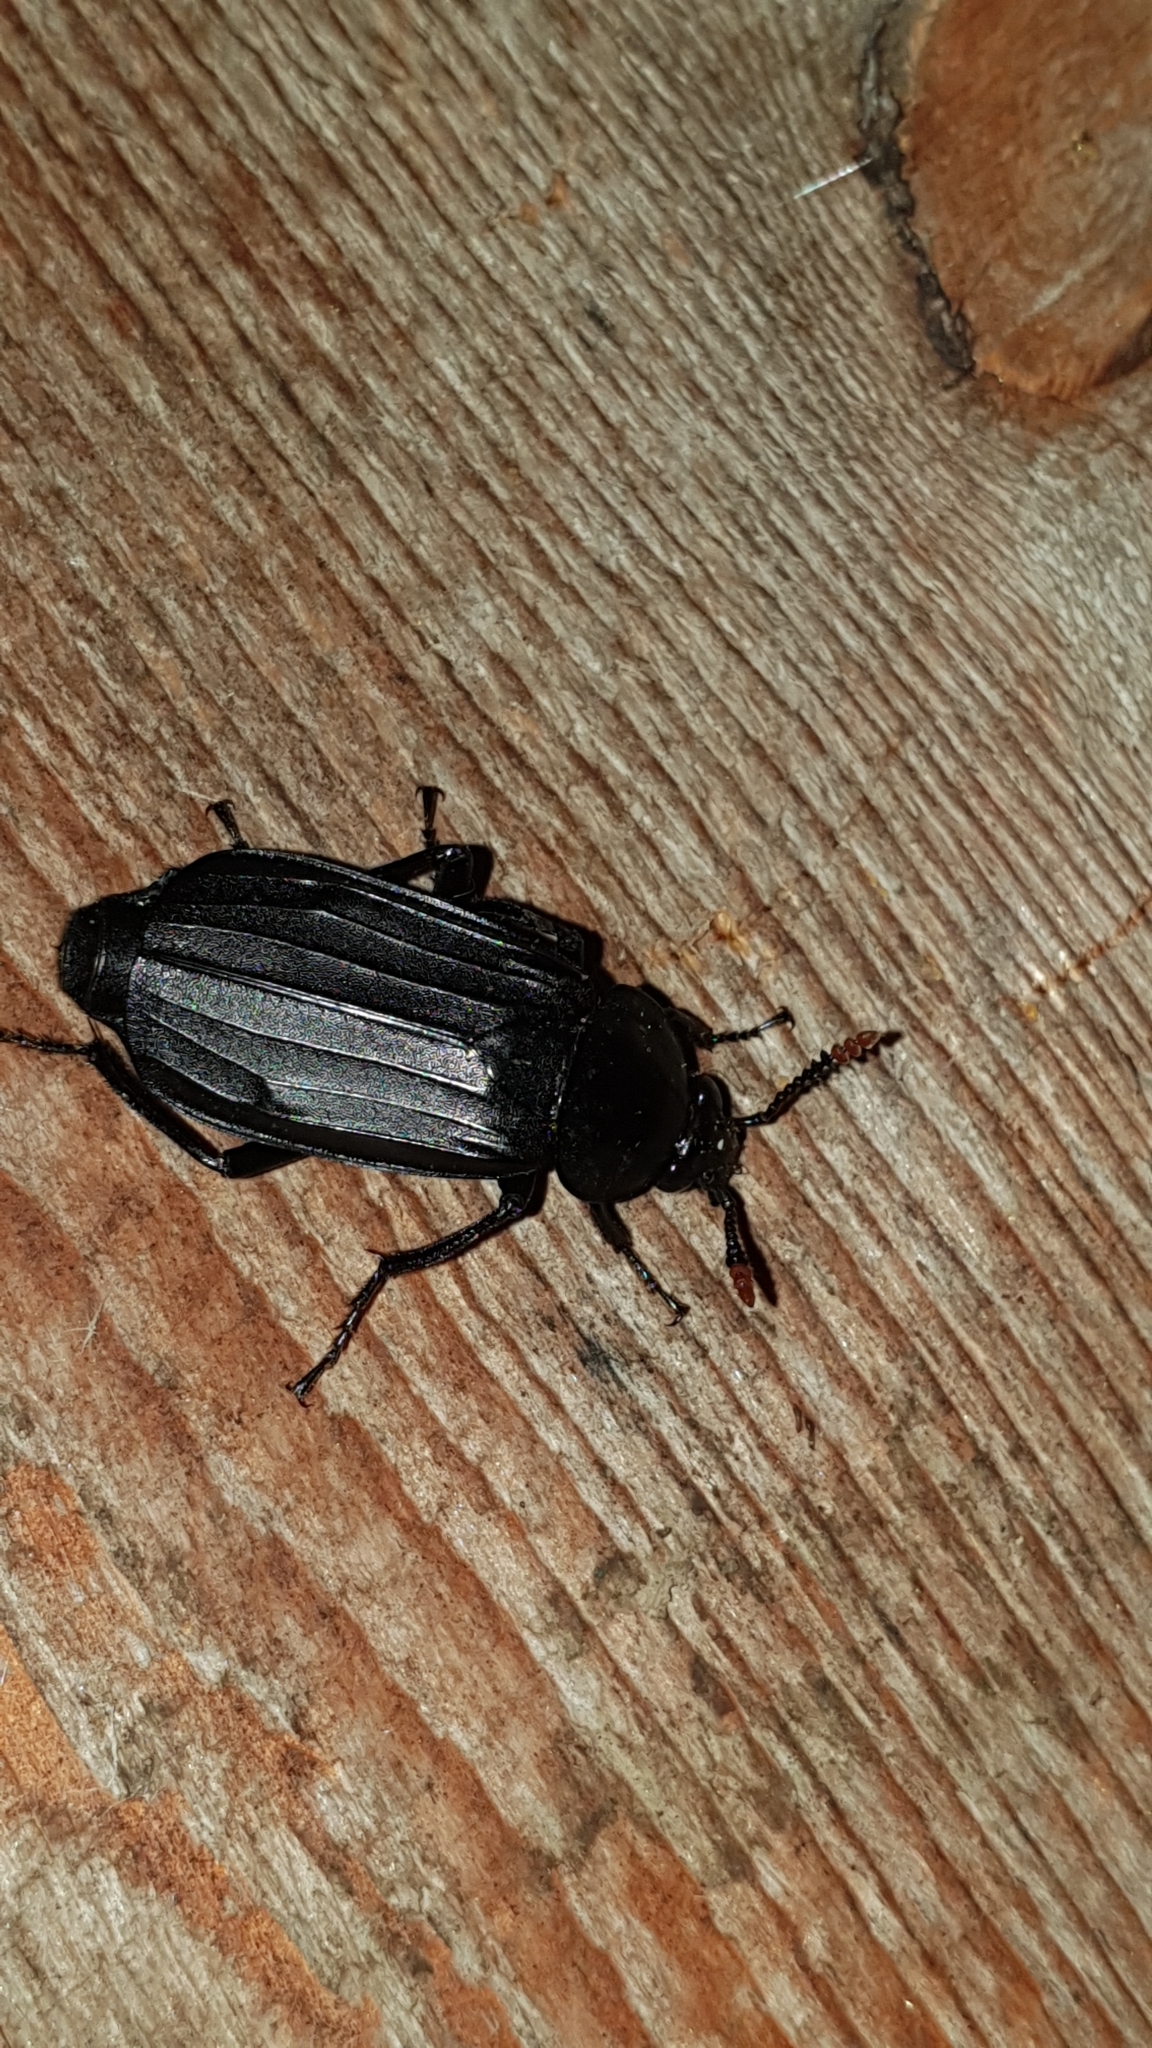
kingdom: Animalia
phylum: Arthropoda
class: Insecta
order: Coleoptera
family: Staphylinidae
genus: Necrodes
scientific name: Necrodes littoralis
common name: Shore sexton beetle
